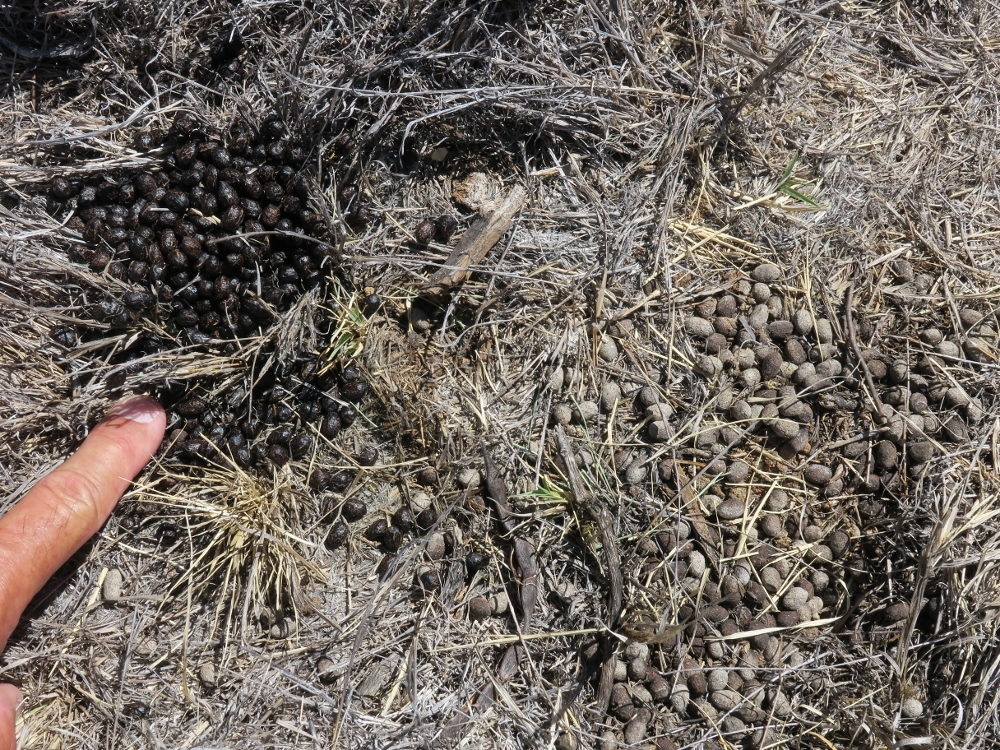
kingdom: Animalia
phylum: Chordata
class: Mammalia
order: Artiodactyla
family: Bovidae
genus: Sylvicapra
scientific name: Sylvicapra grimmia
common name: Bush duiker
